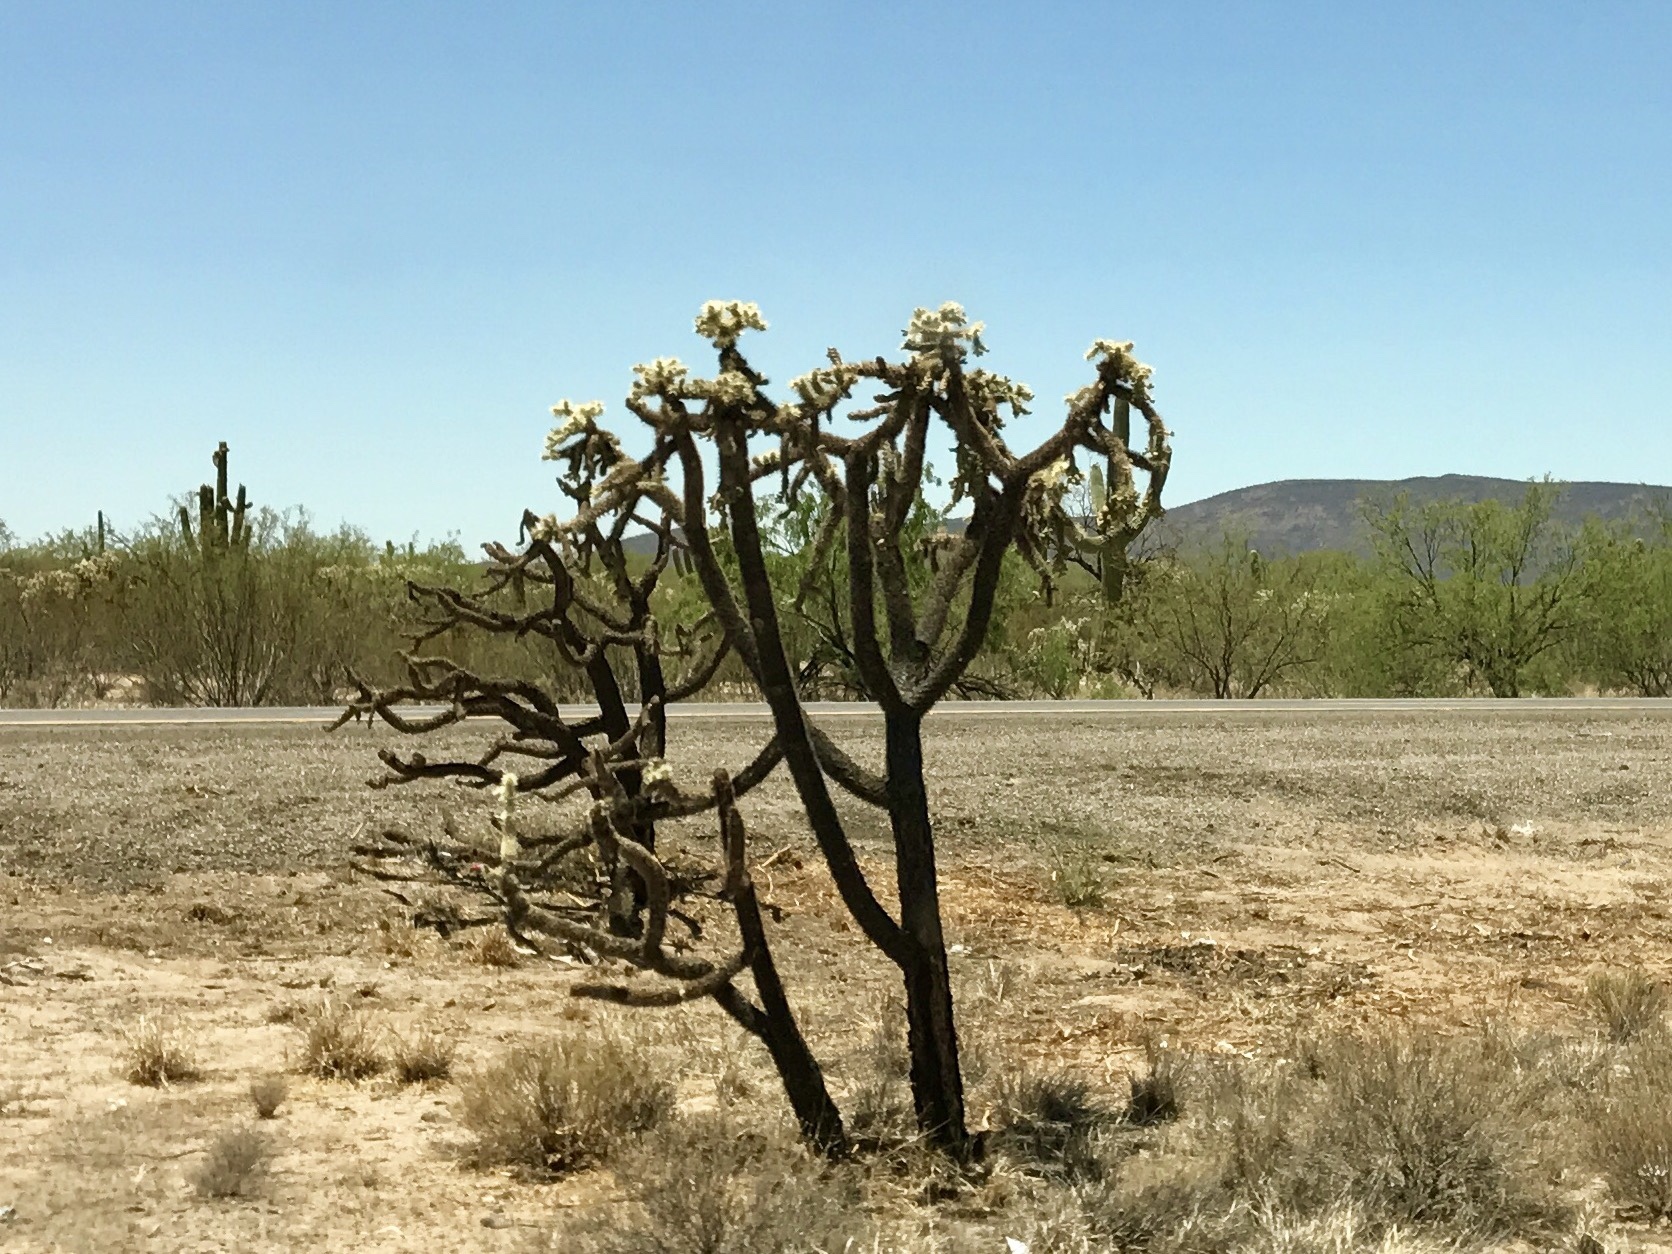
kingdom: Plantae
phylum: Tracheophyta
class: Magnoliopsida
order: Caryophyllales
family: Cactaceae
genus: Cylindropuntia
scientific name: Cylindropuntia fulgida
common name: Jumping cholla
